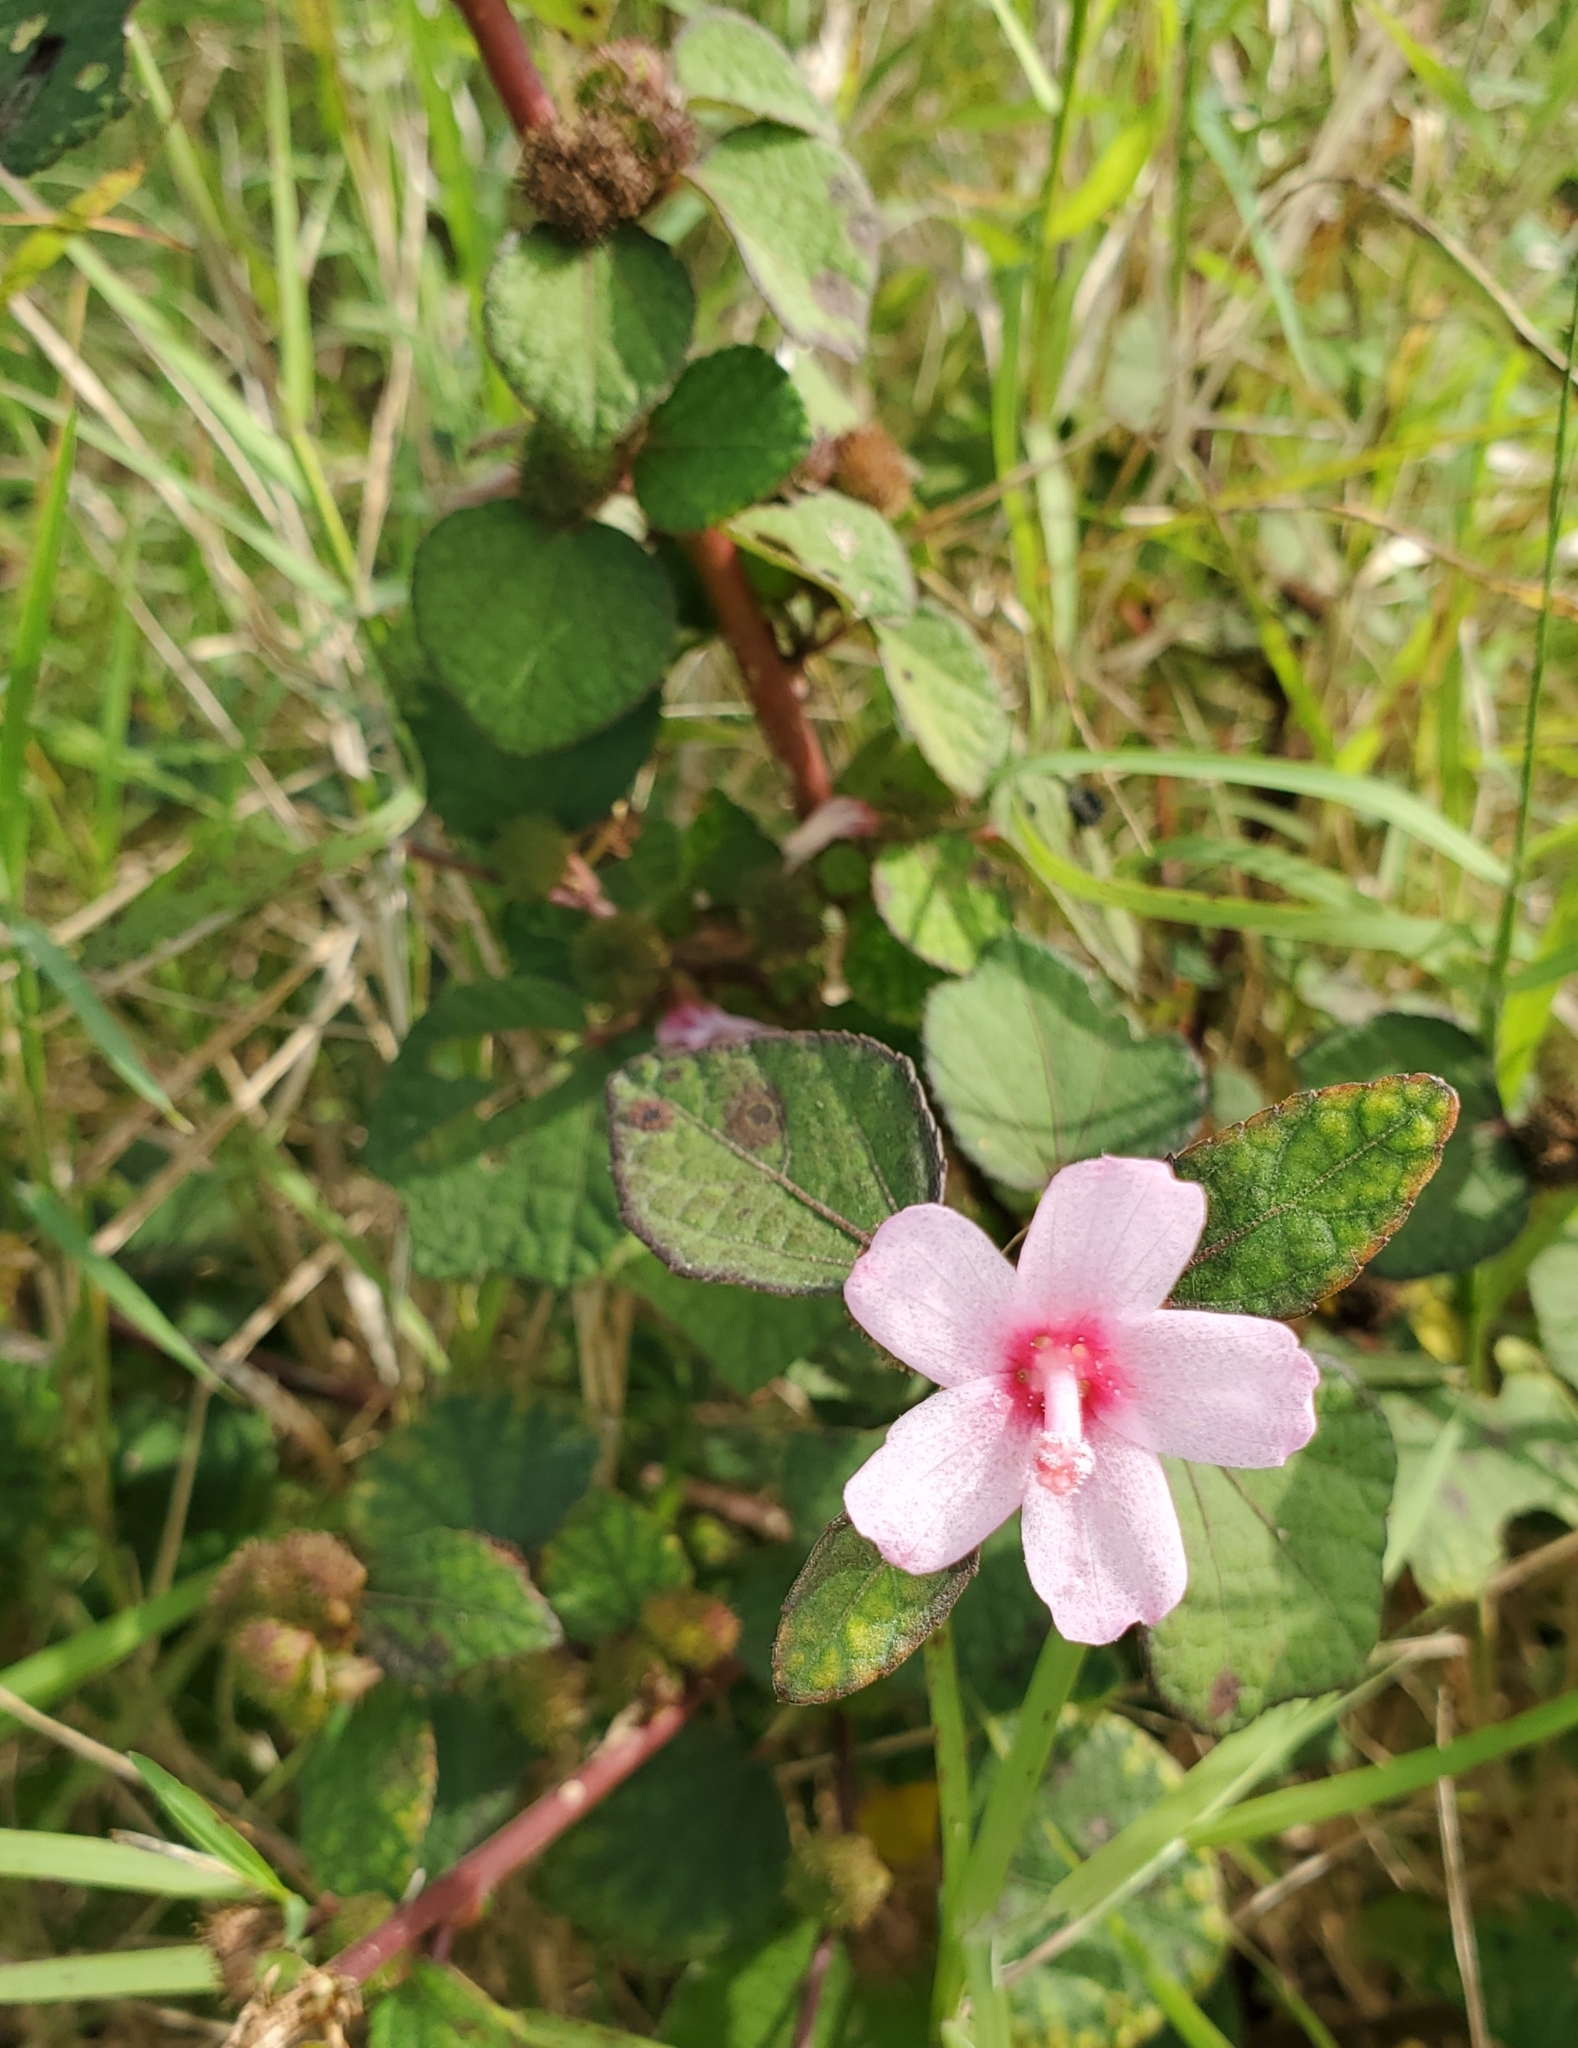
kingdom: Plantae
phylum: Tracheophyta
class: Magnoliopsida
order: Malvales
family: Malvaceae
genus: Urena
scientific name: Urena lobata
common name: Caesarweed
